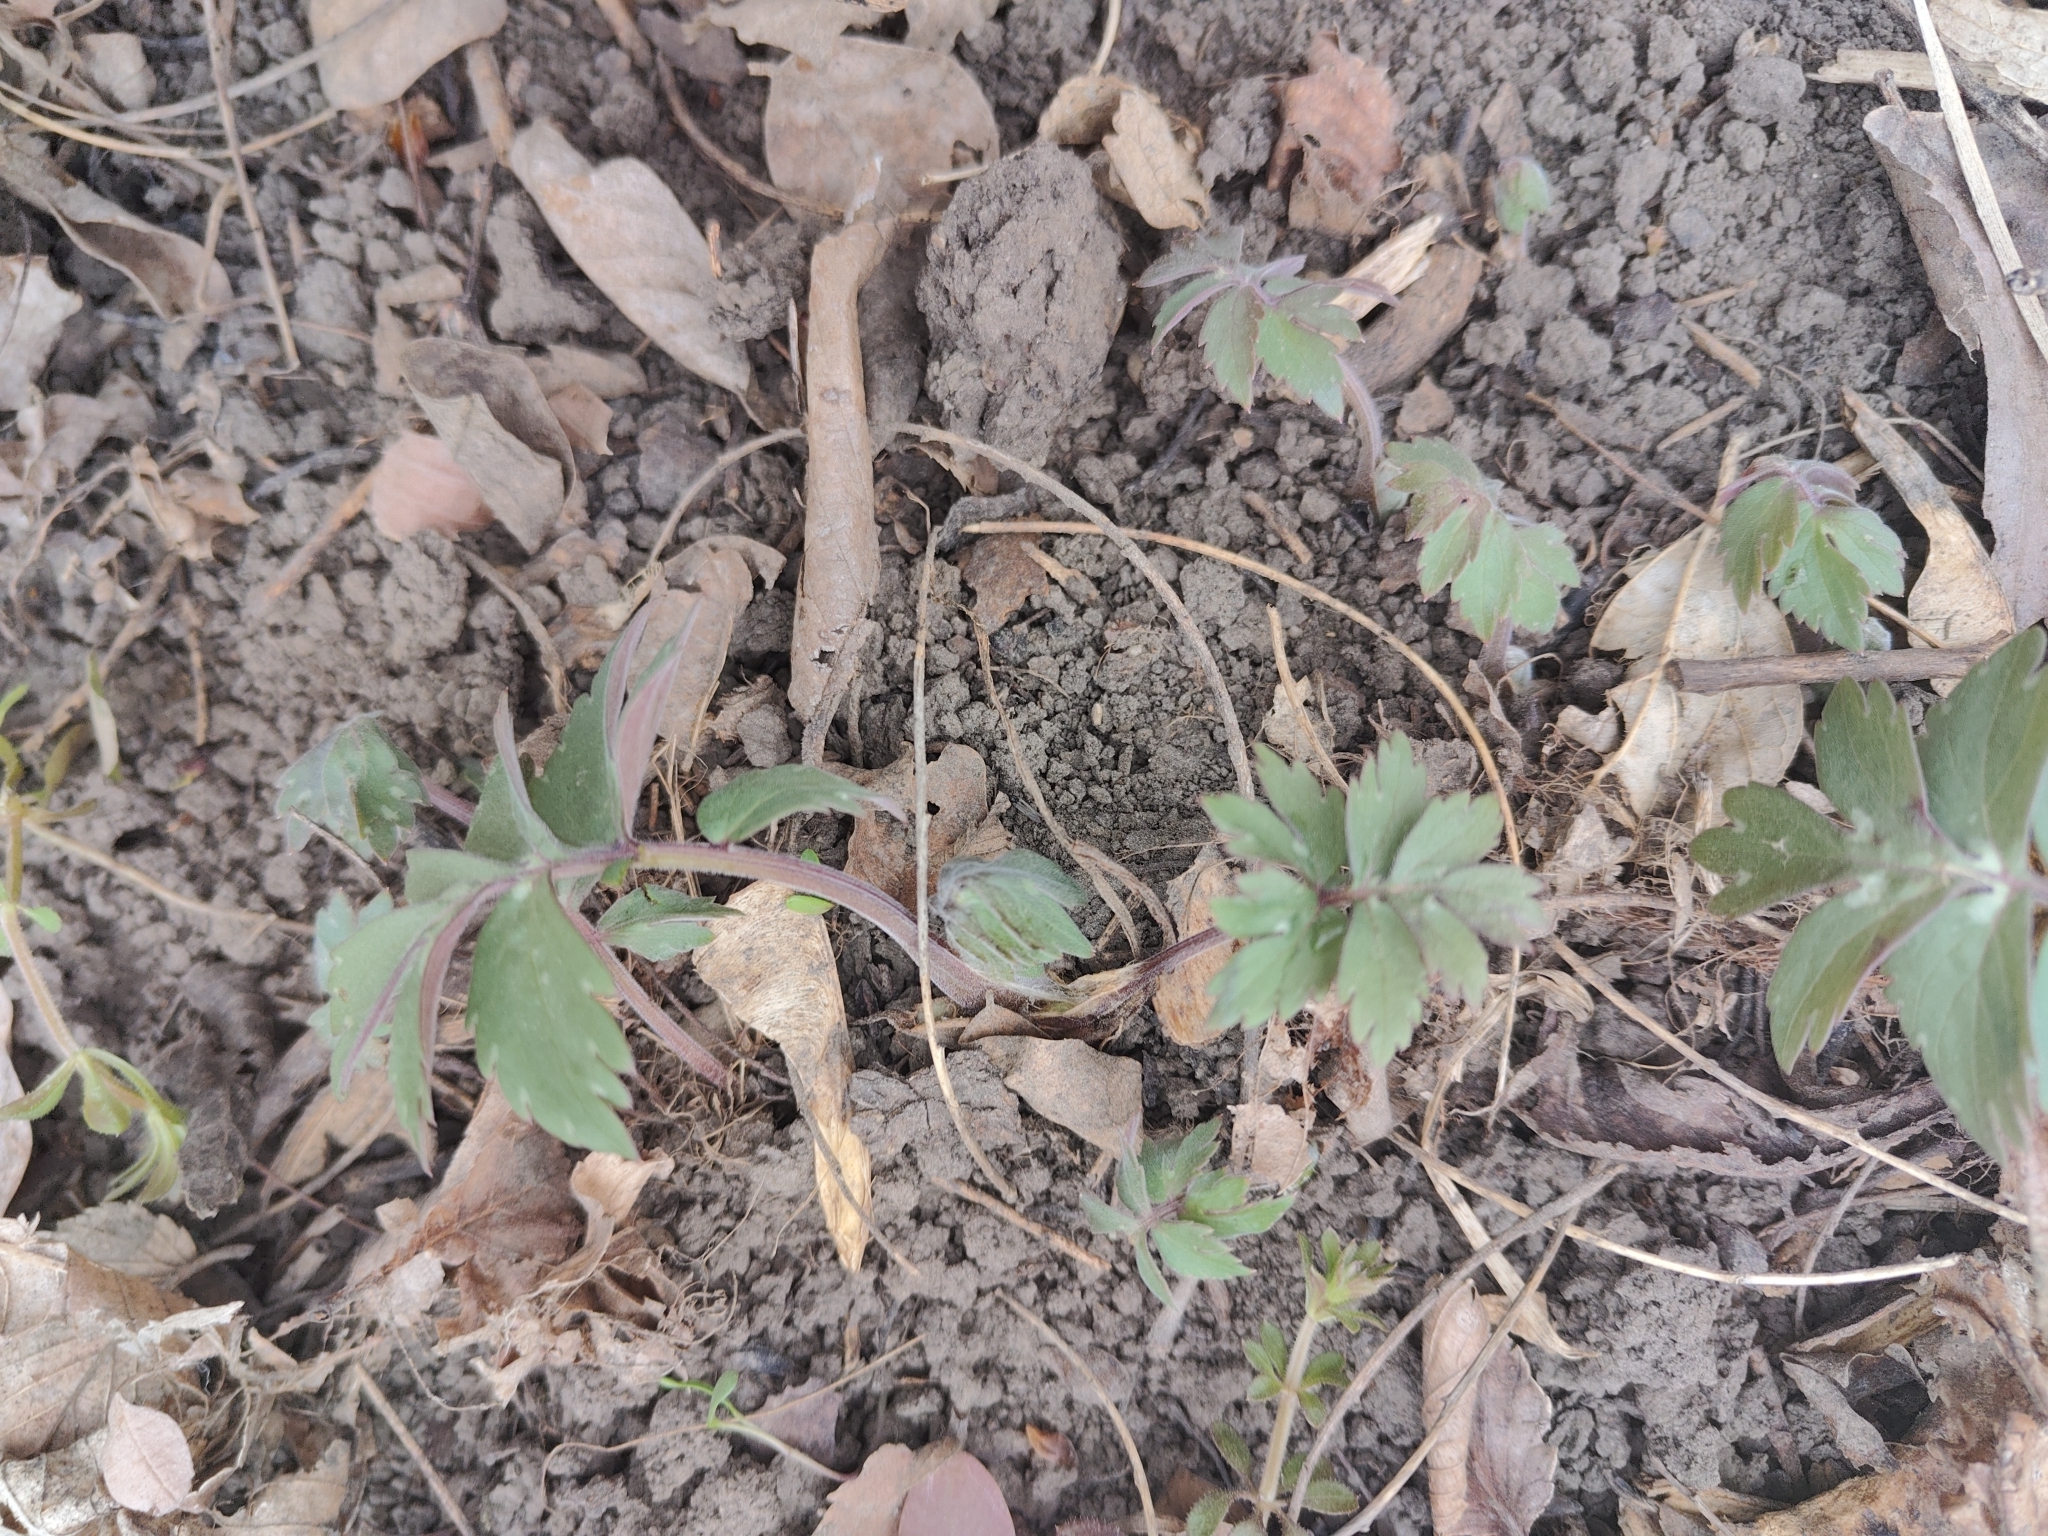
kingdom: Plantae
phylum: Tracheophyta
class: Magnoliopsida
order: Boraginales
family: Hydrophyllaceae
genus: Hydrophyllum
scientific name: Hydrophyllum virginianum
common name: Virginia waterleaf
